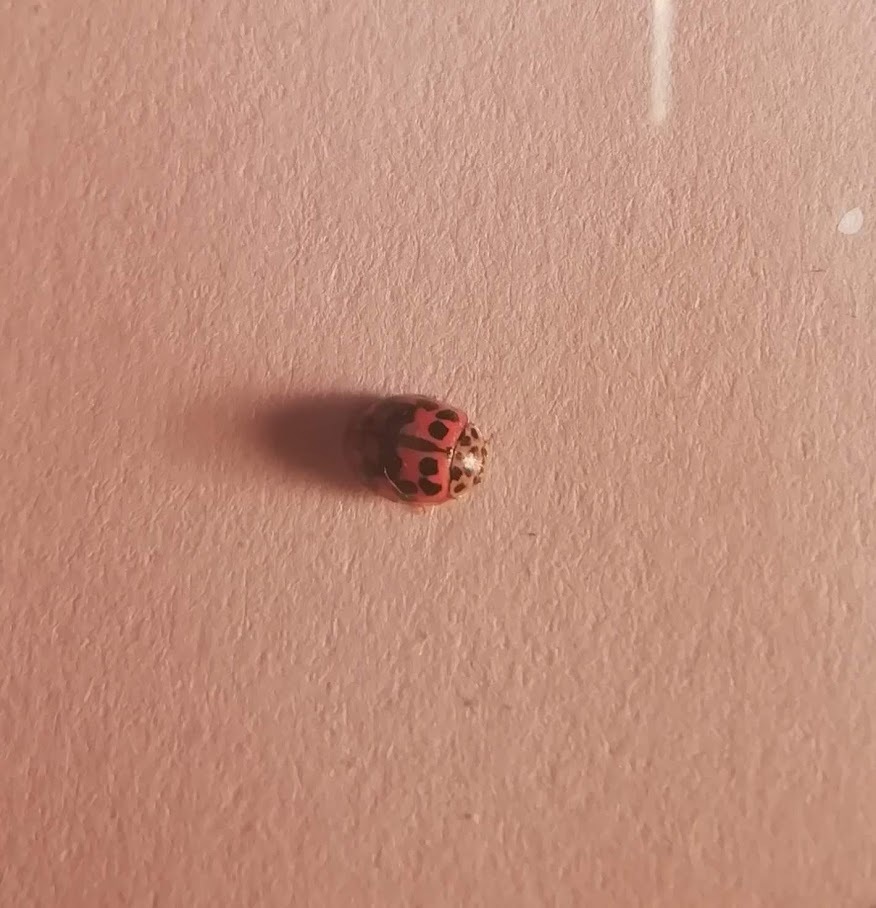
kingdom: Animalia
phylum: Arthropoda
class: Insecta
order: Coleoptera
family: Coccinellidae
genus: Oenopia
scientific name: Oenopia conglobata
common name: Ladybird beetle
